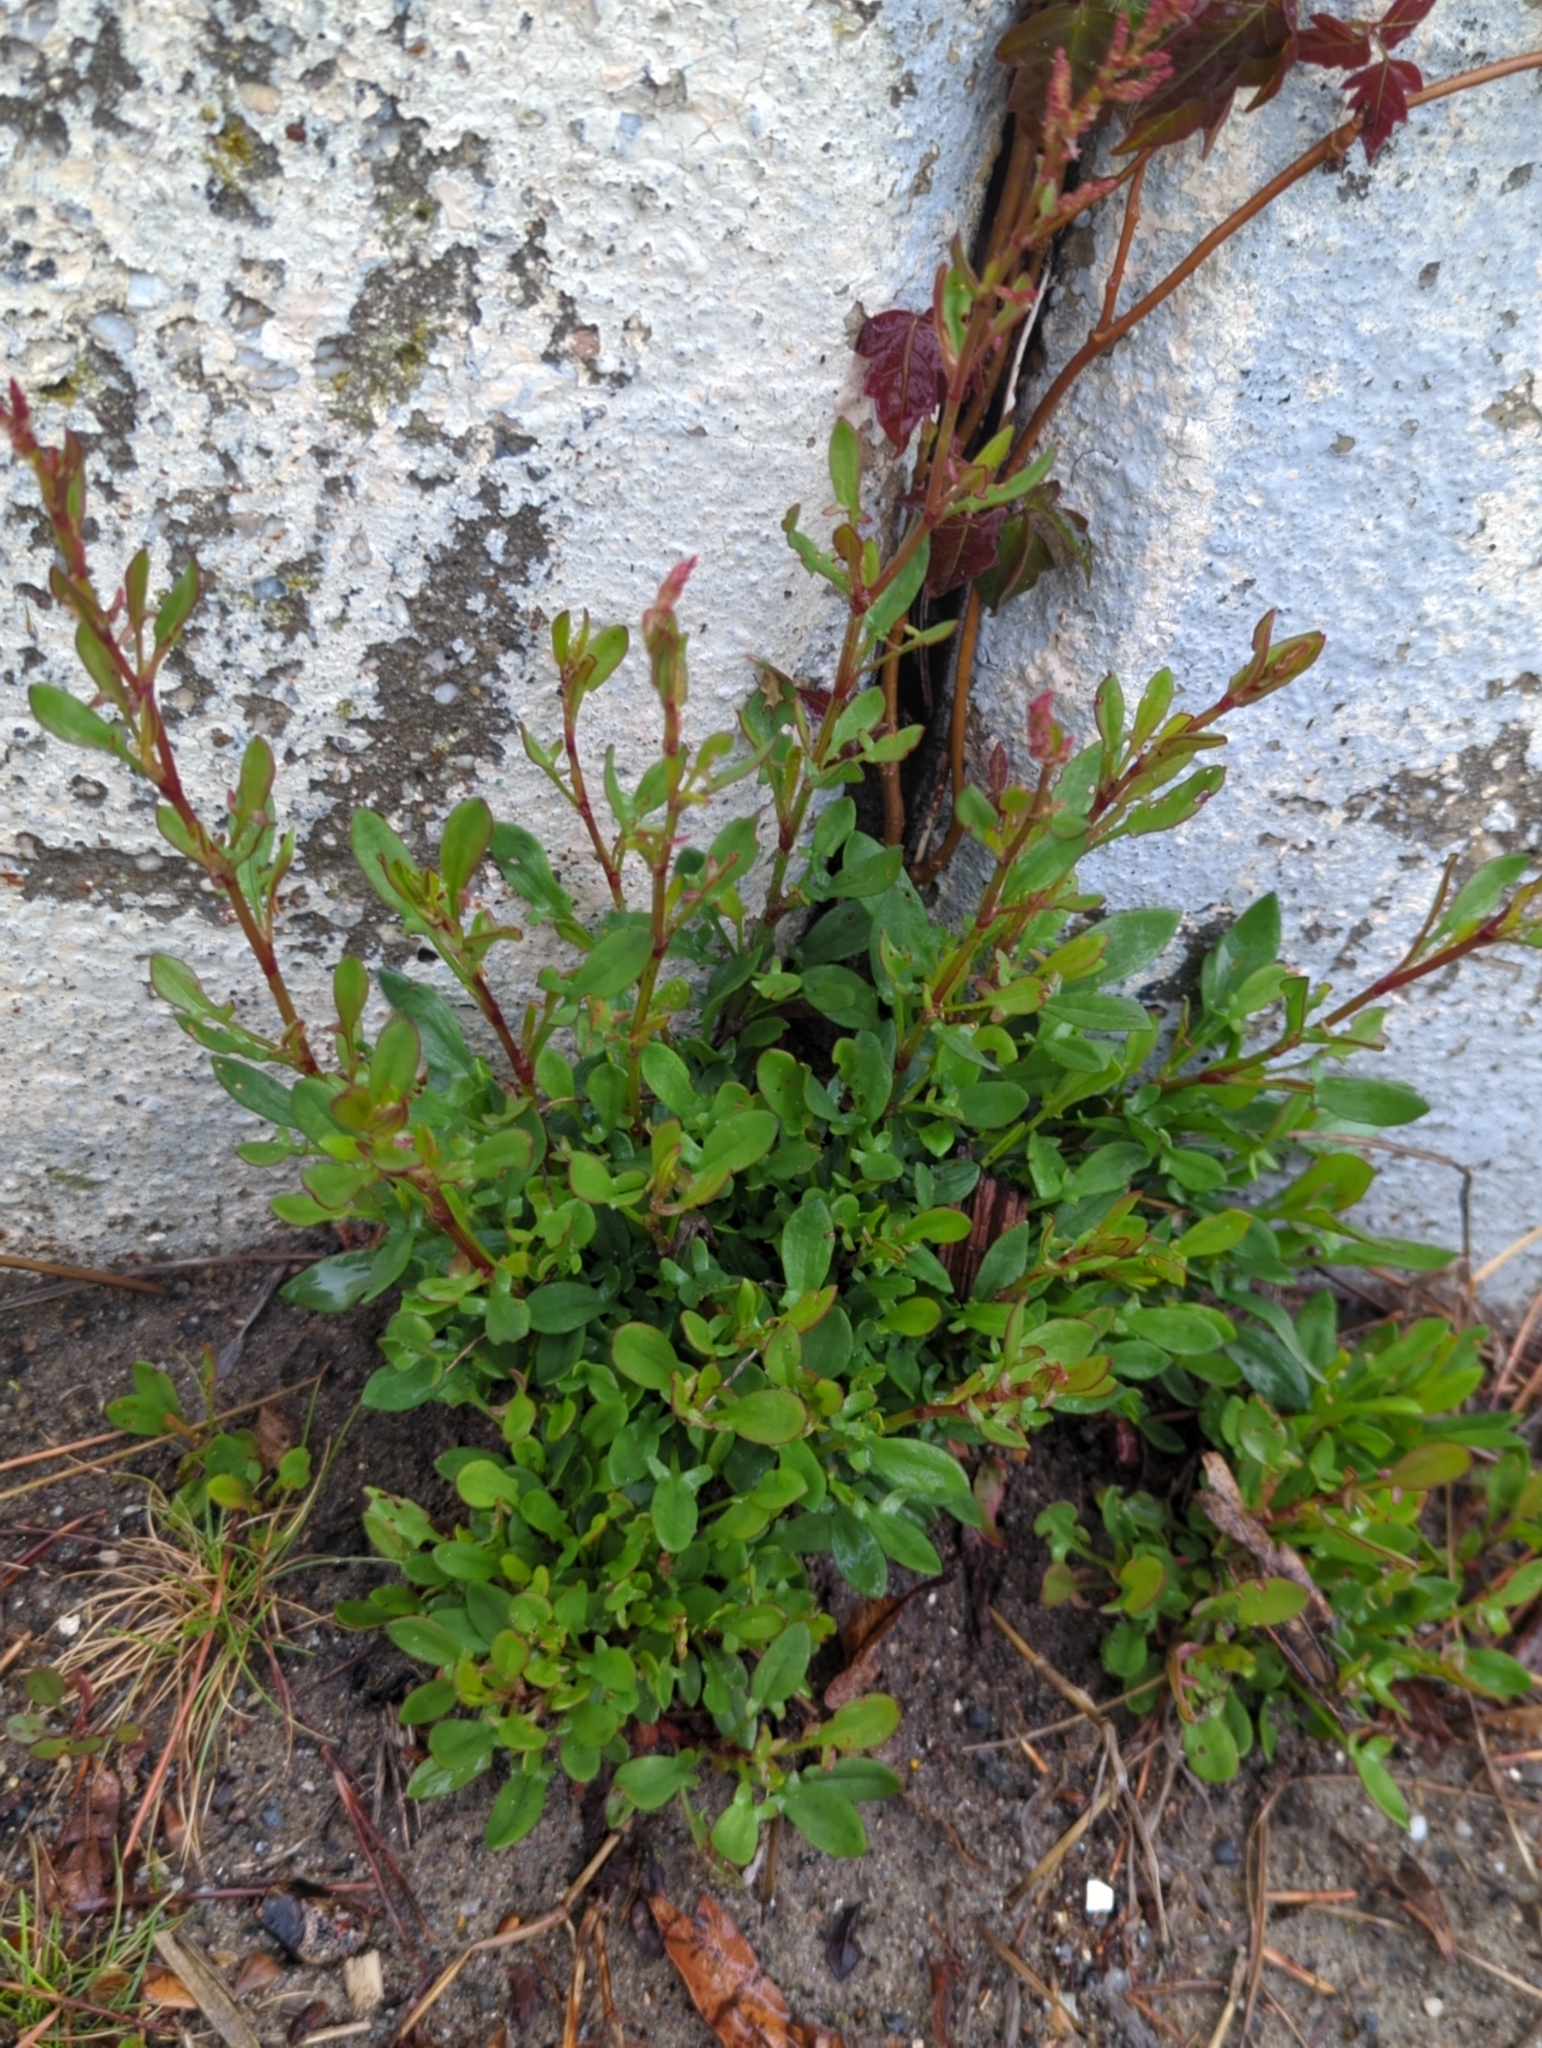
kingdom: Plantae
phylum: Tracheophyta
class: Magnoliopsida
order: Caryophyllales
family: Polygonaceae
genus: Rumex
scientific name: Rumex acetosella
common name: Common sheep sorrel
